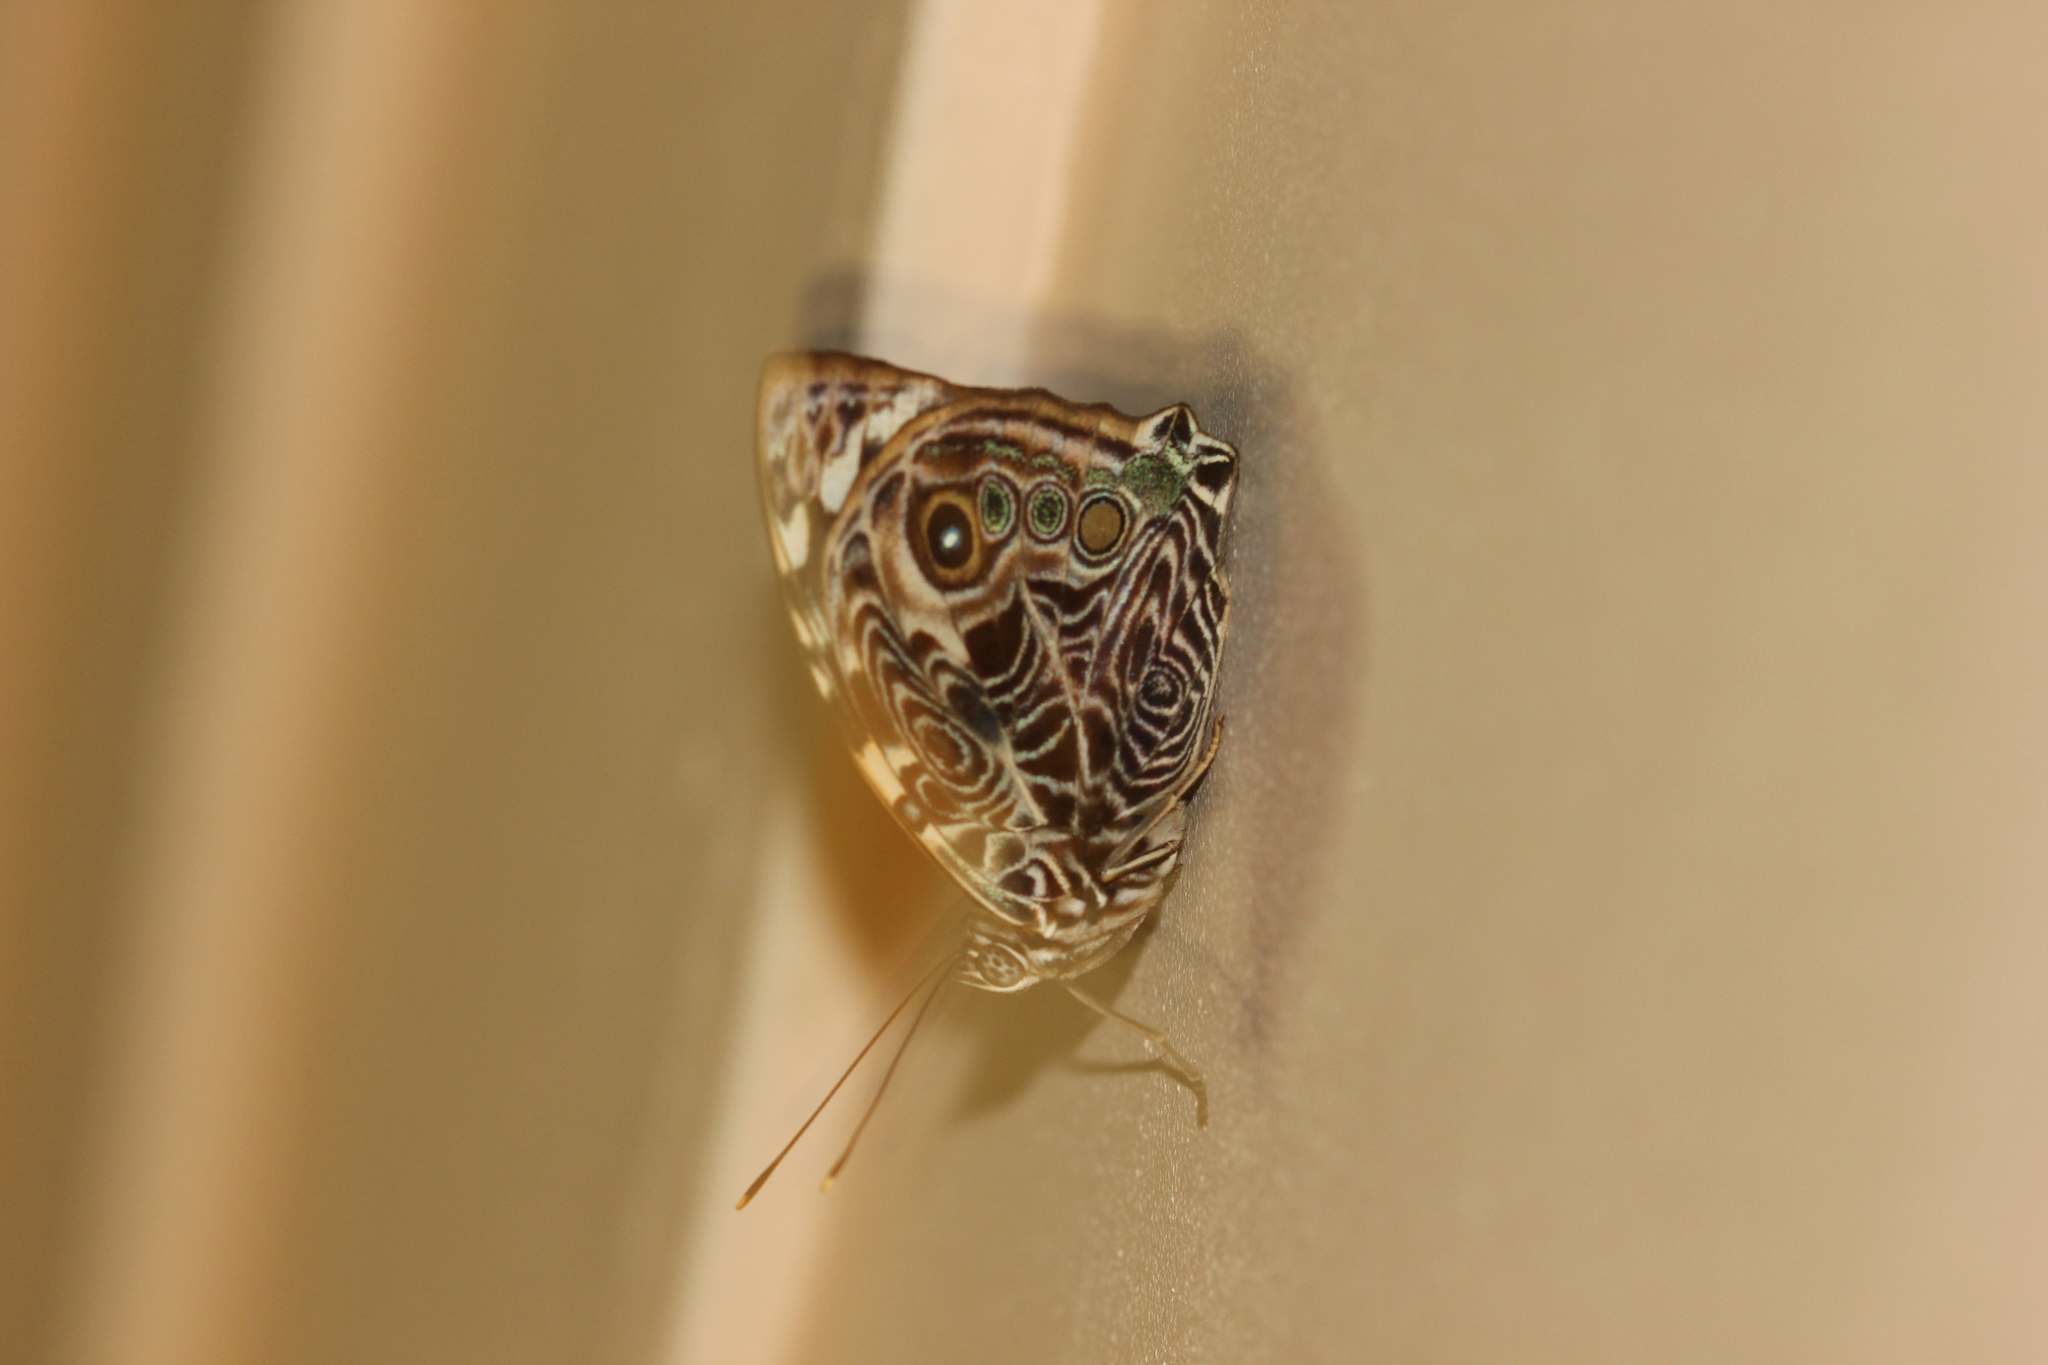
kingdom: Animalia
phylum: Arthropoda
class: Insecta
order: Lepidoptera
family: Nymphalidae
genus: Smyrna
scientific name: Smyrna blomfildia
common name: Blomfild's beauty
